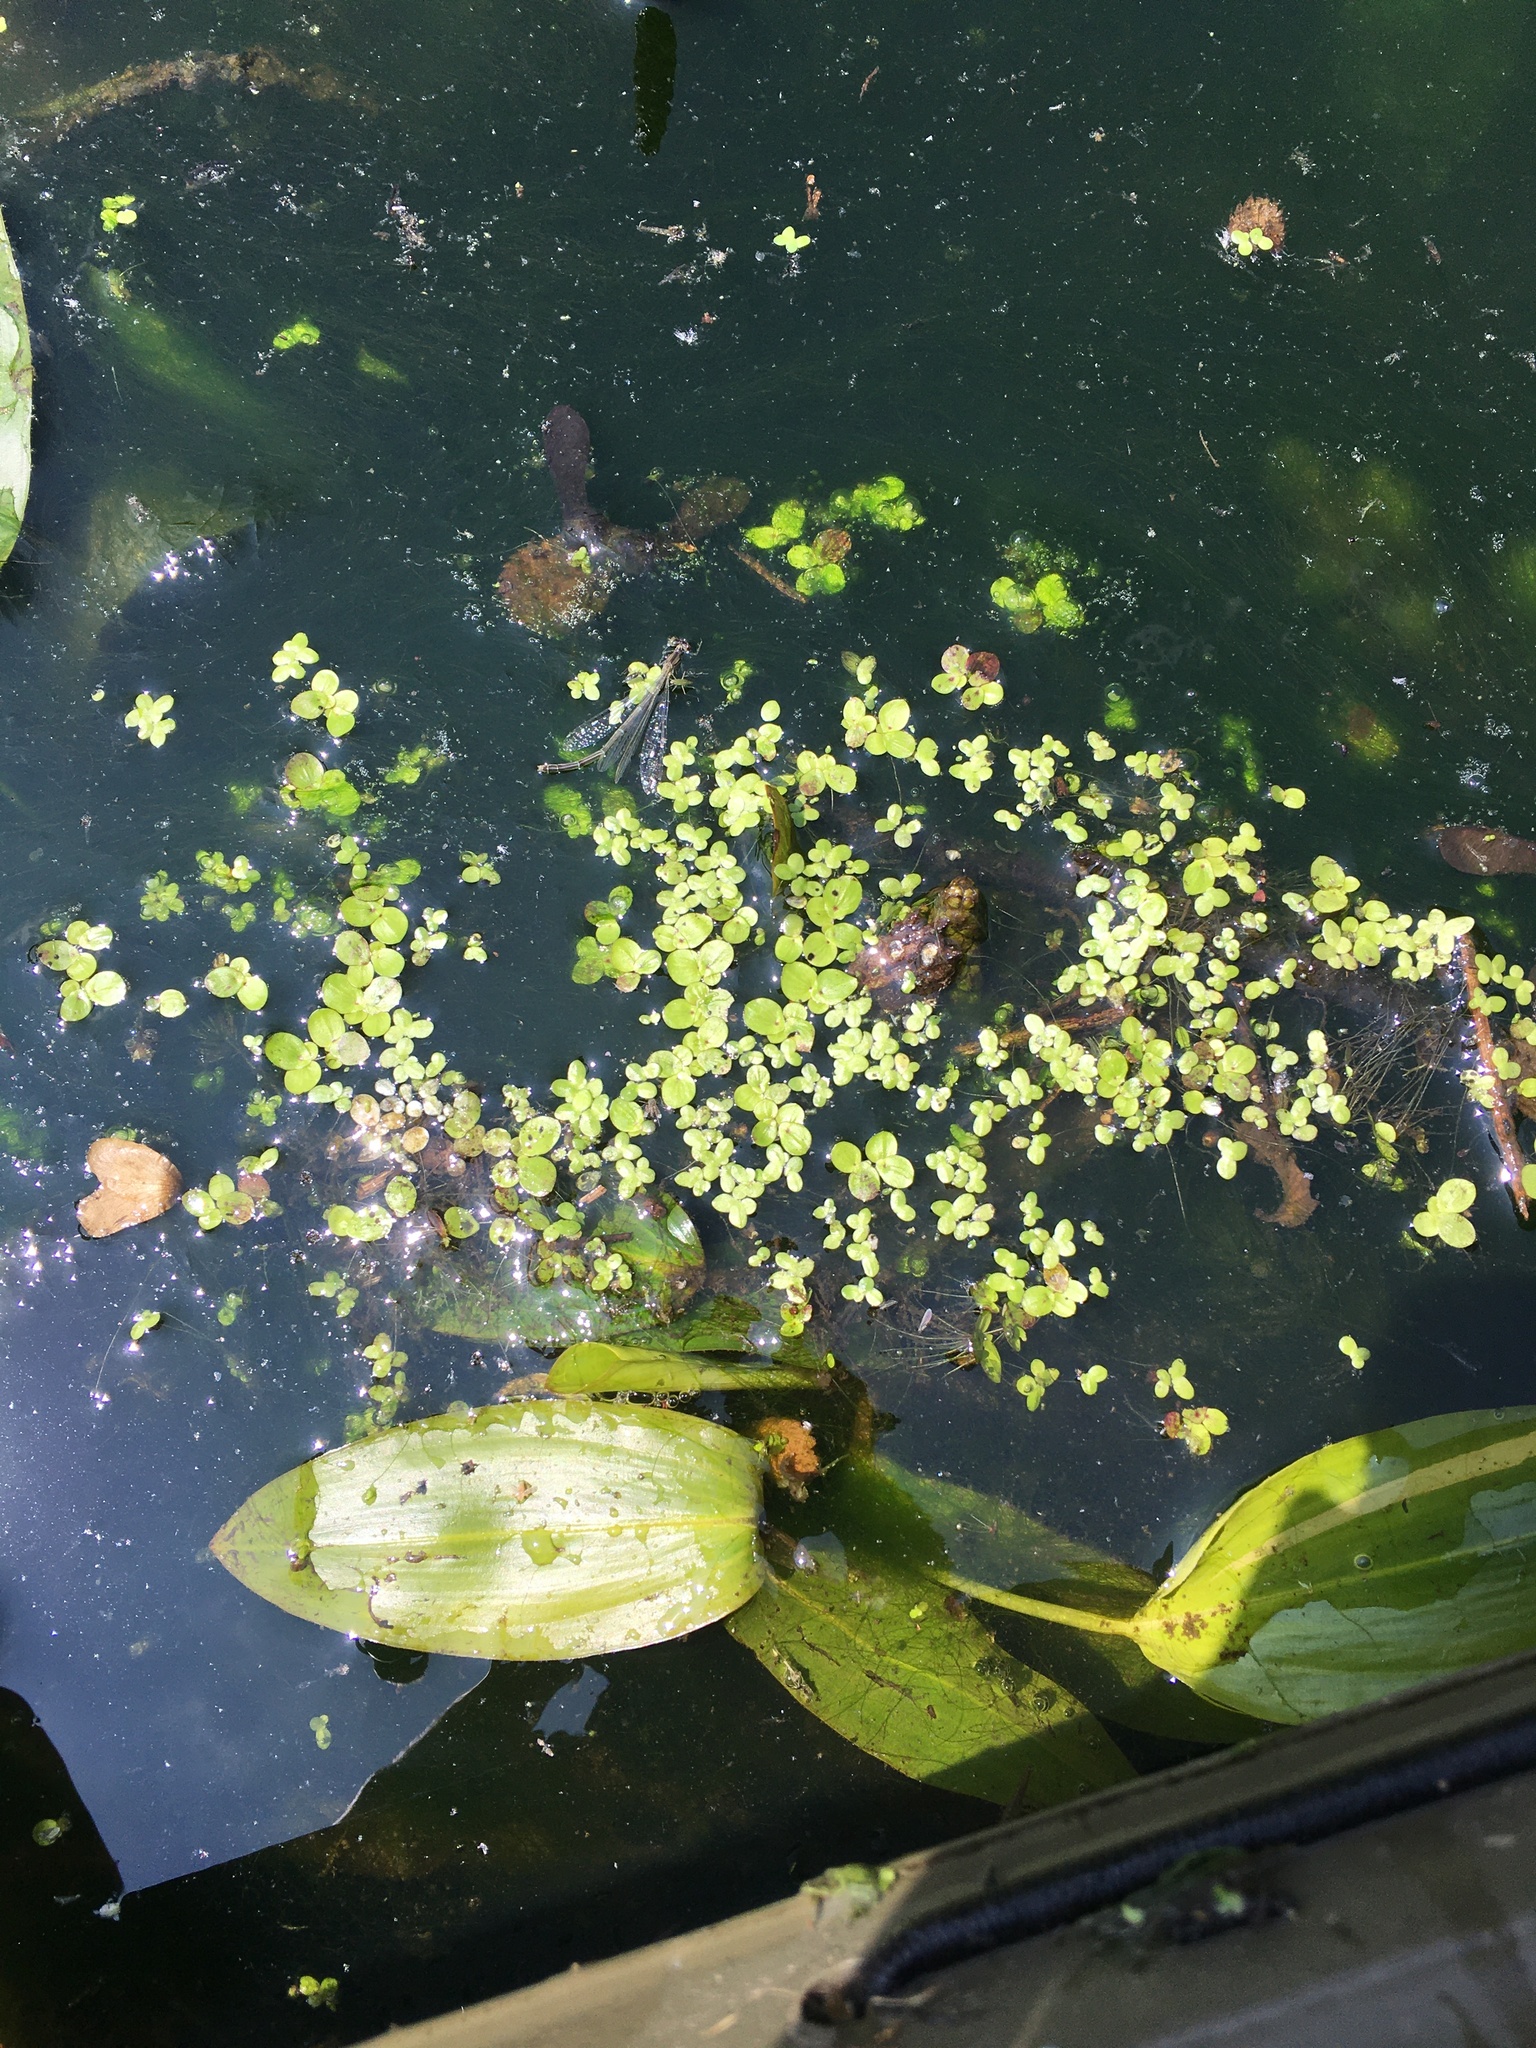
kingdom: Plantae
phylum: Tracheophyta
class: Liliopsida
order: Alismatales
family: Araceae
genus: Spirodela
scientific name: Spirodela polyrhiza
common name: Great duckweed
